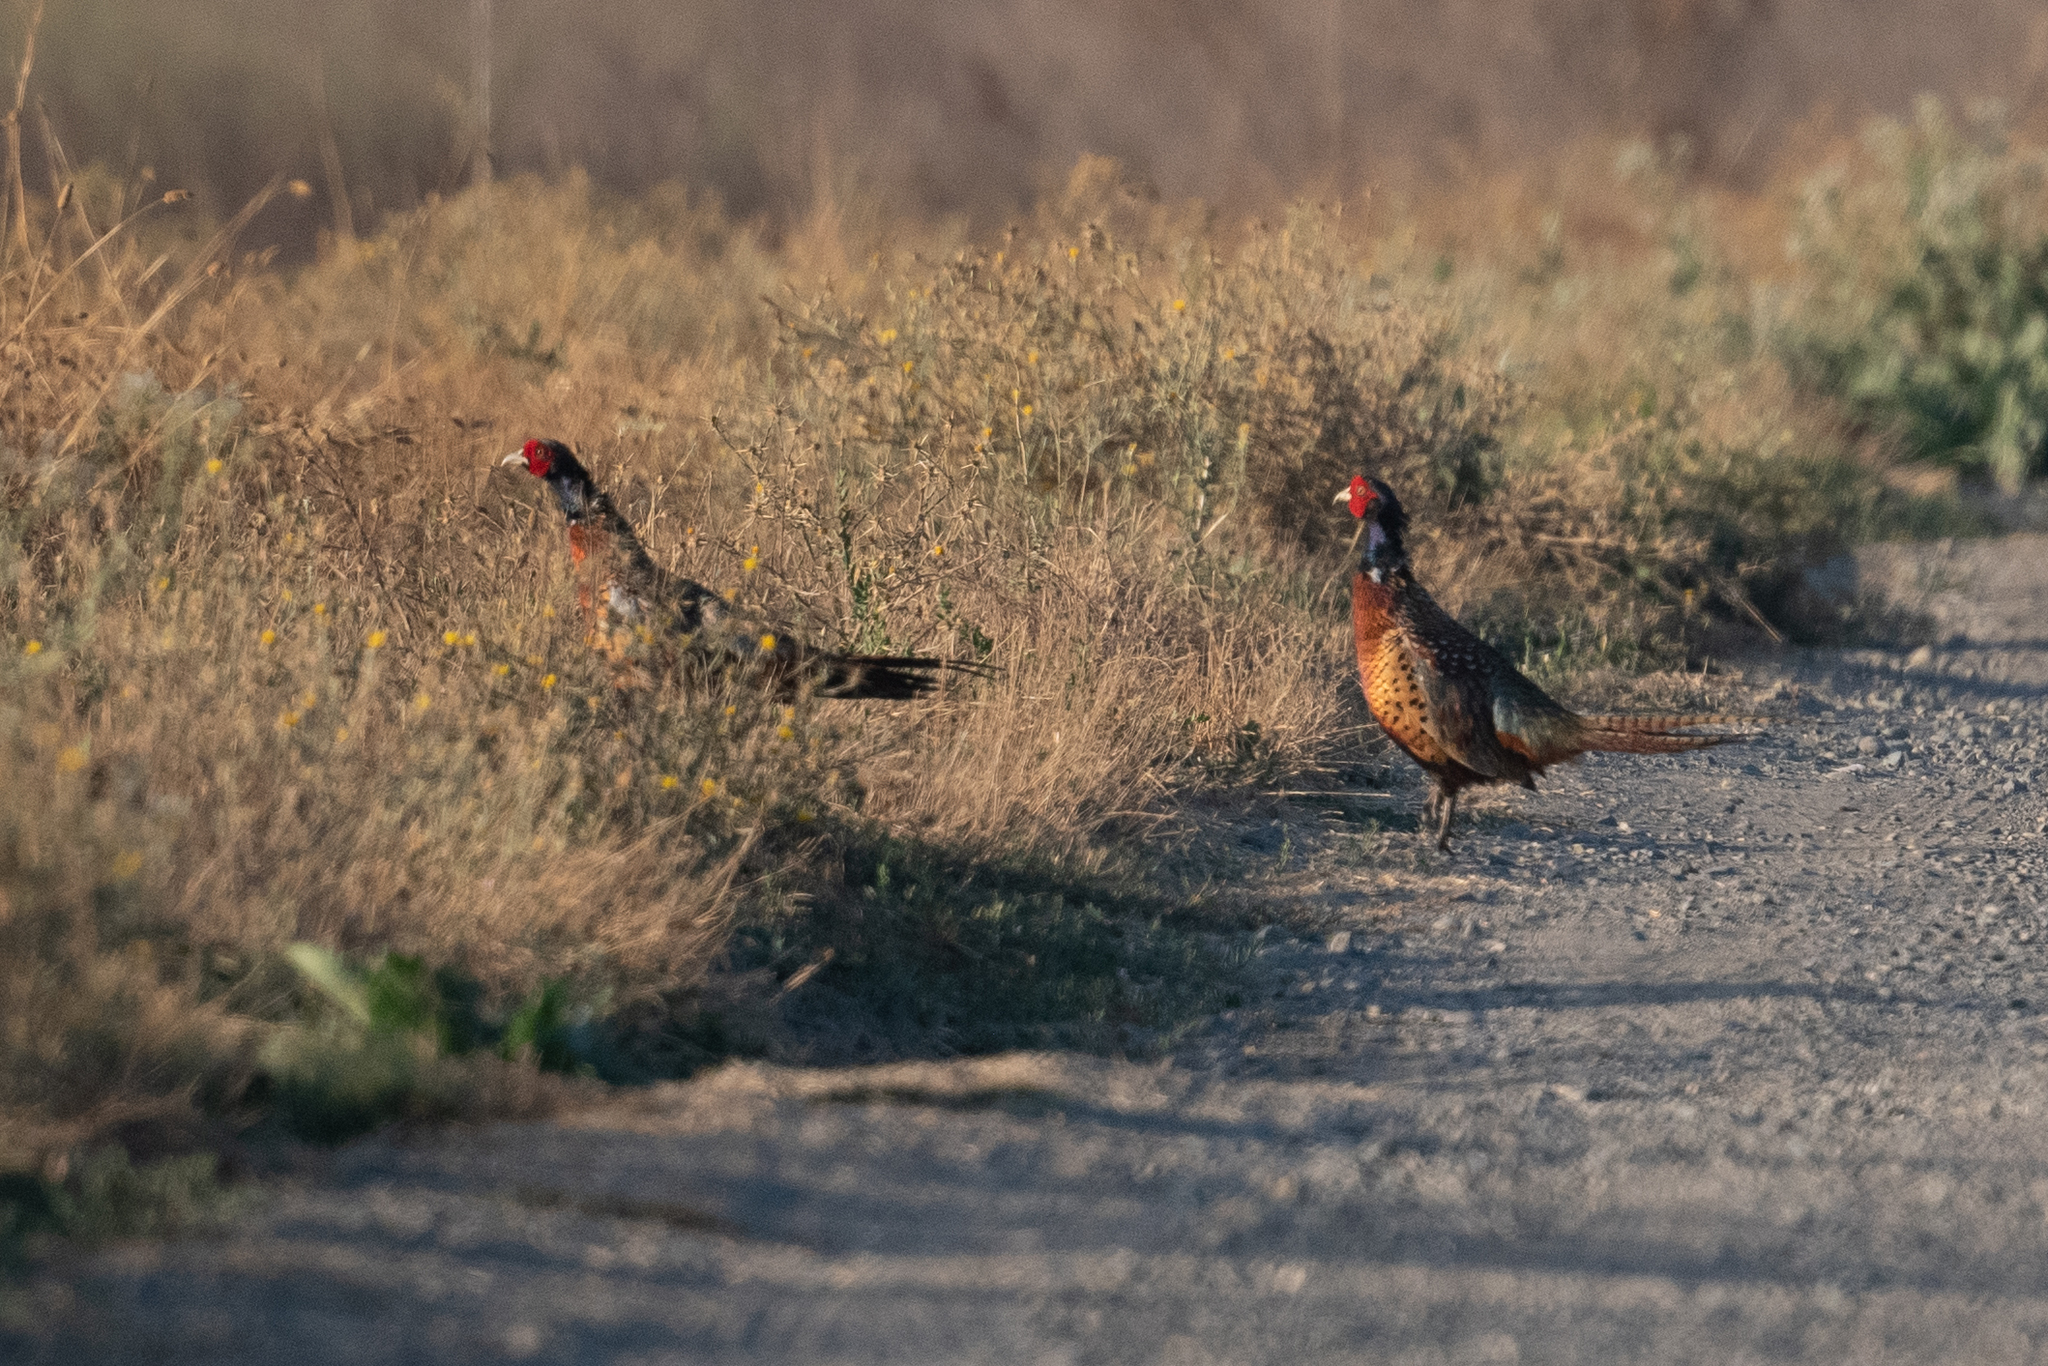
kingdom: Animalia
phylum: Chordata
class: Aves
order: Galliformes
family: Phasianidae
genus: Phasianus
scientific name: Phasianus colchicus
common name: Common pheasant
